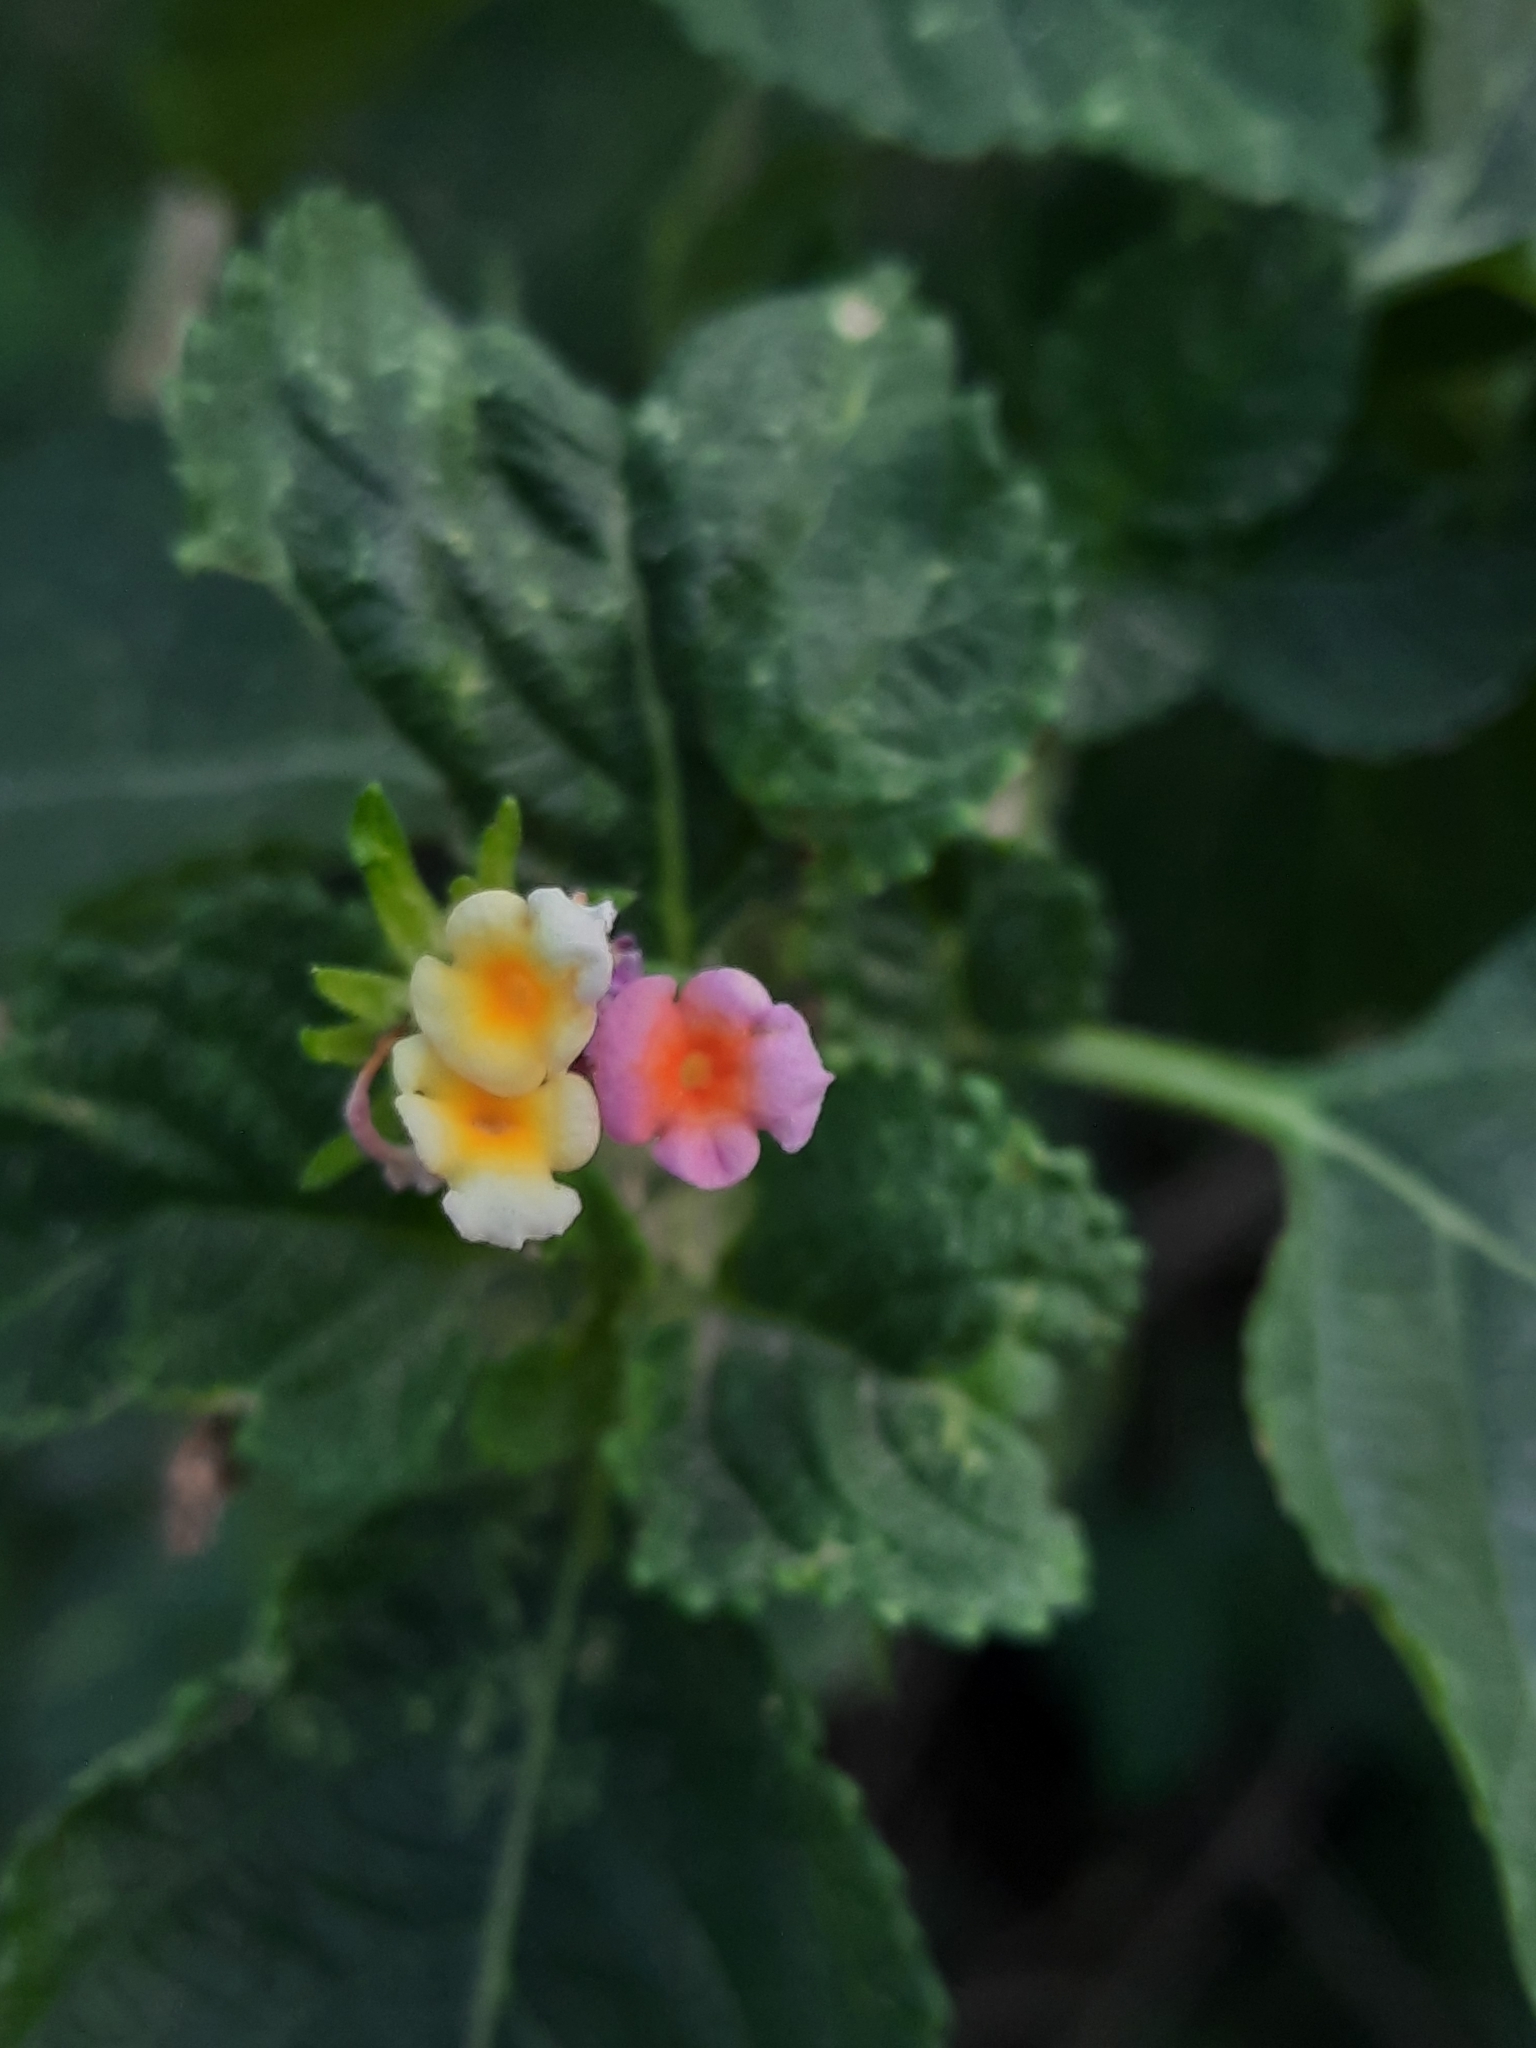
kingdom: Plantae
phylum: Tracheophyta
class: Magnoliopsida
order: Lamiales
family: Verbenaceae
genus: Lantana
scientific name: Lantana camara
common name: Lantana
